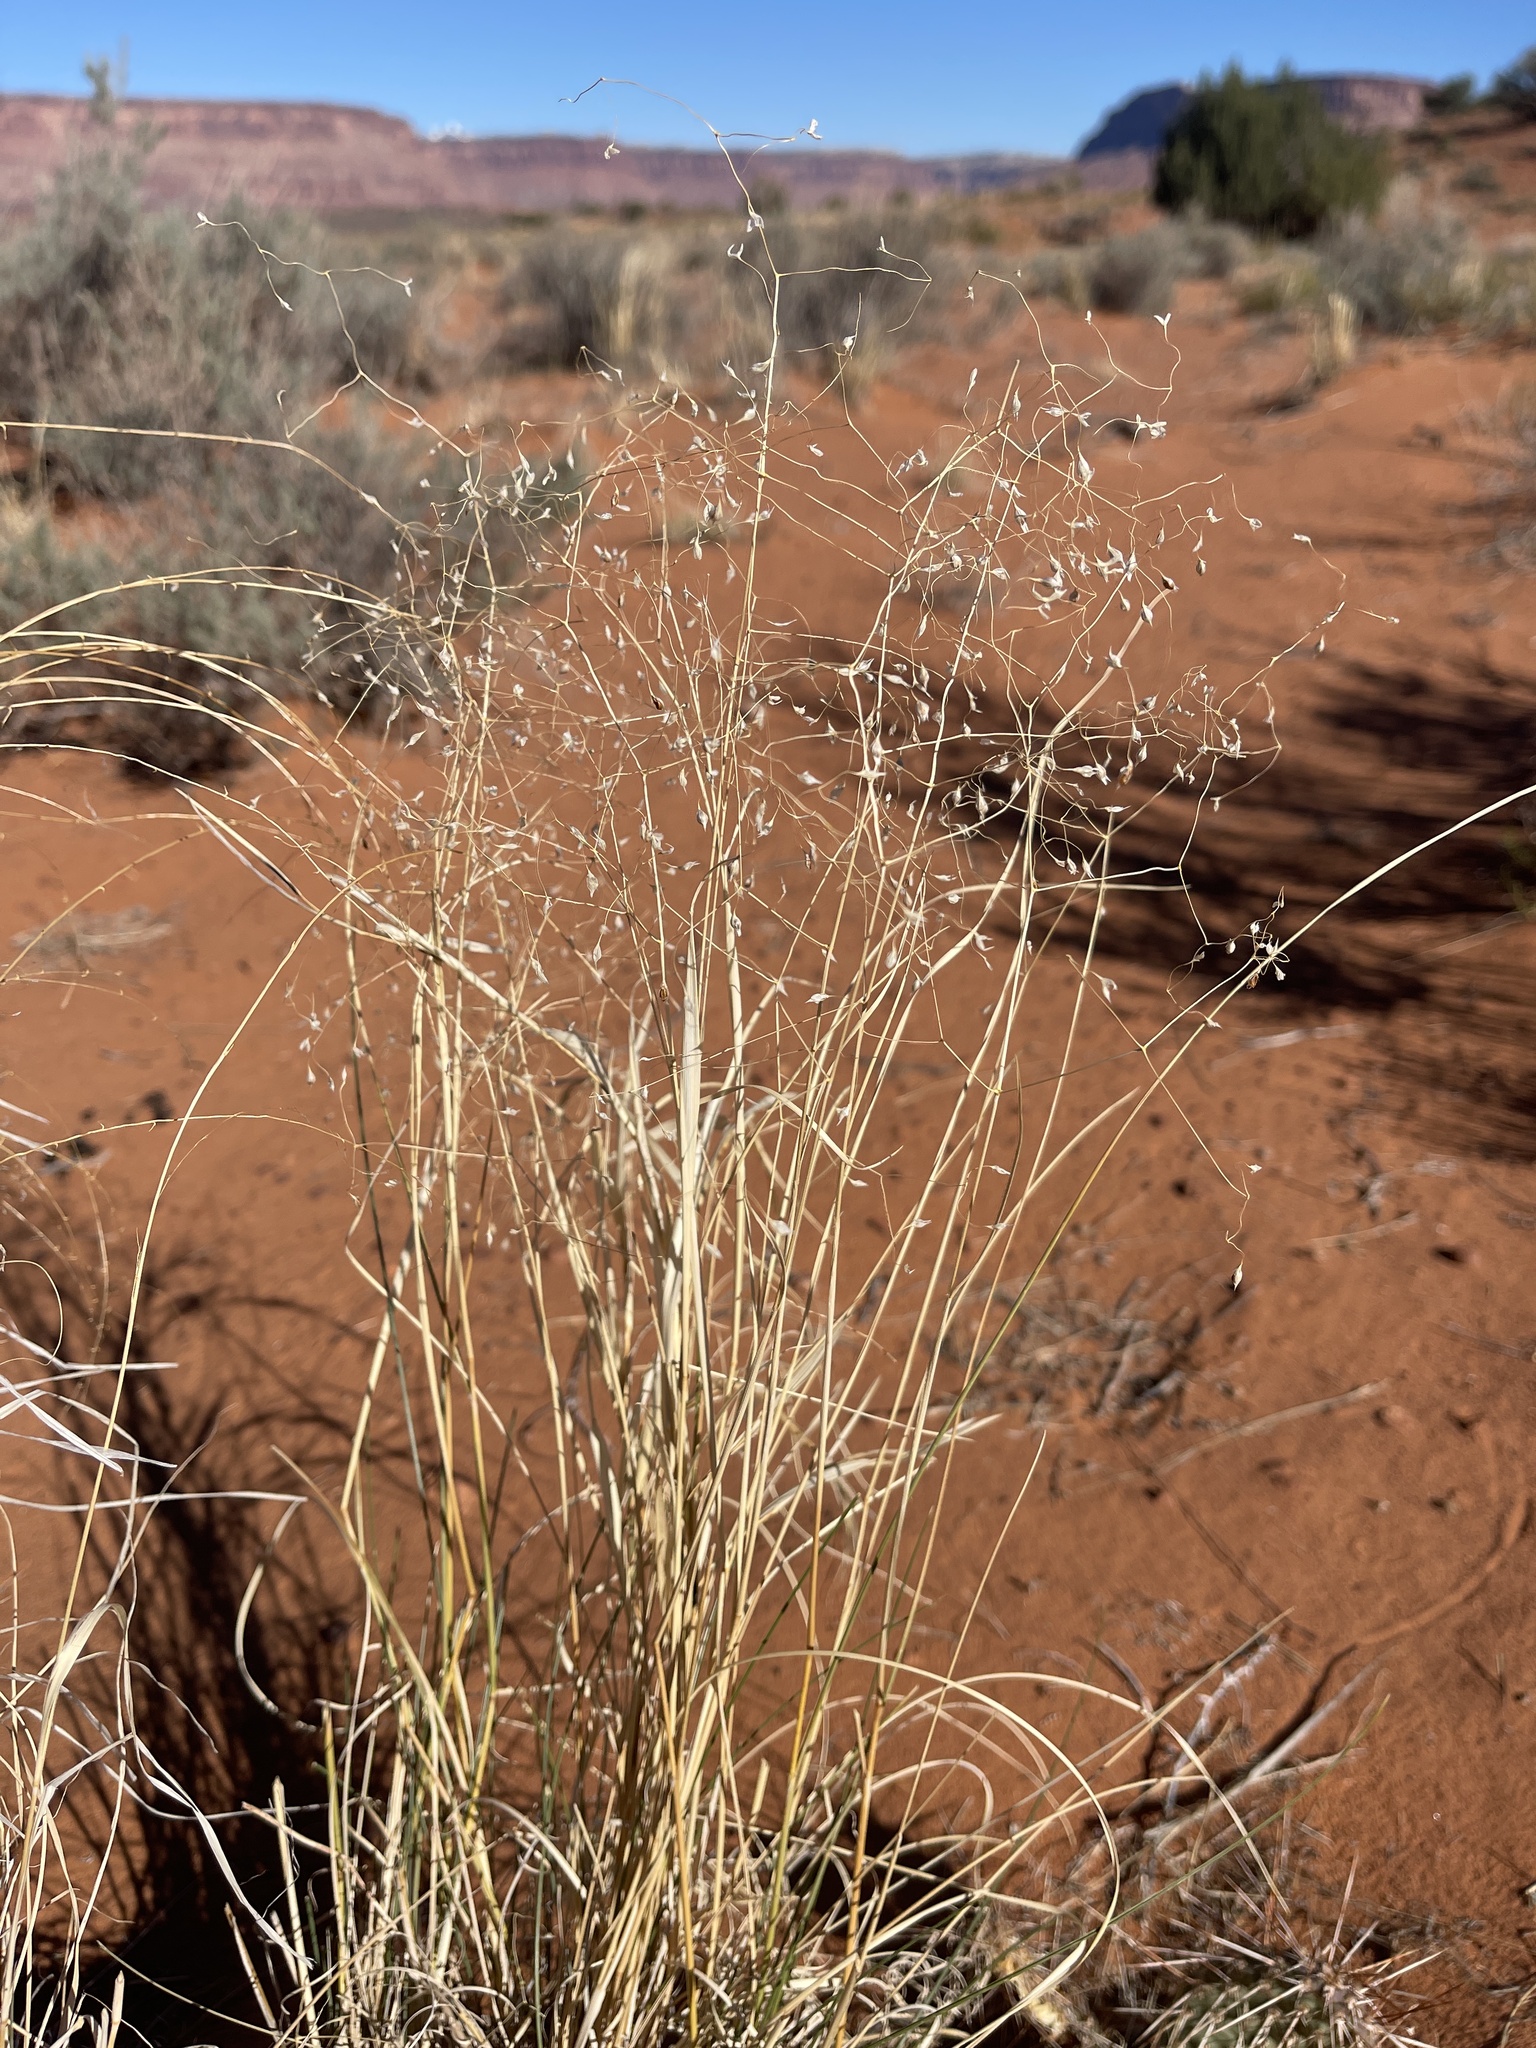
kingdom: Plantae
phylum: Tracheophyta
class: Liliopsida
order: Poales
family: Poaceae
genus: Eriocoma
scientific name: Eriocoma hymenoides
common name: Indian mountain ricegrass
